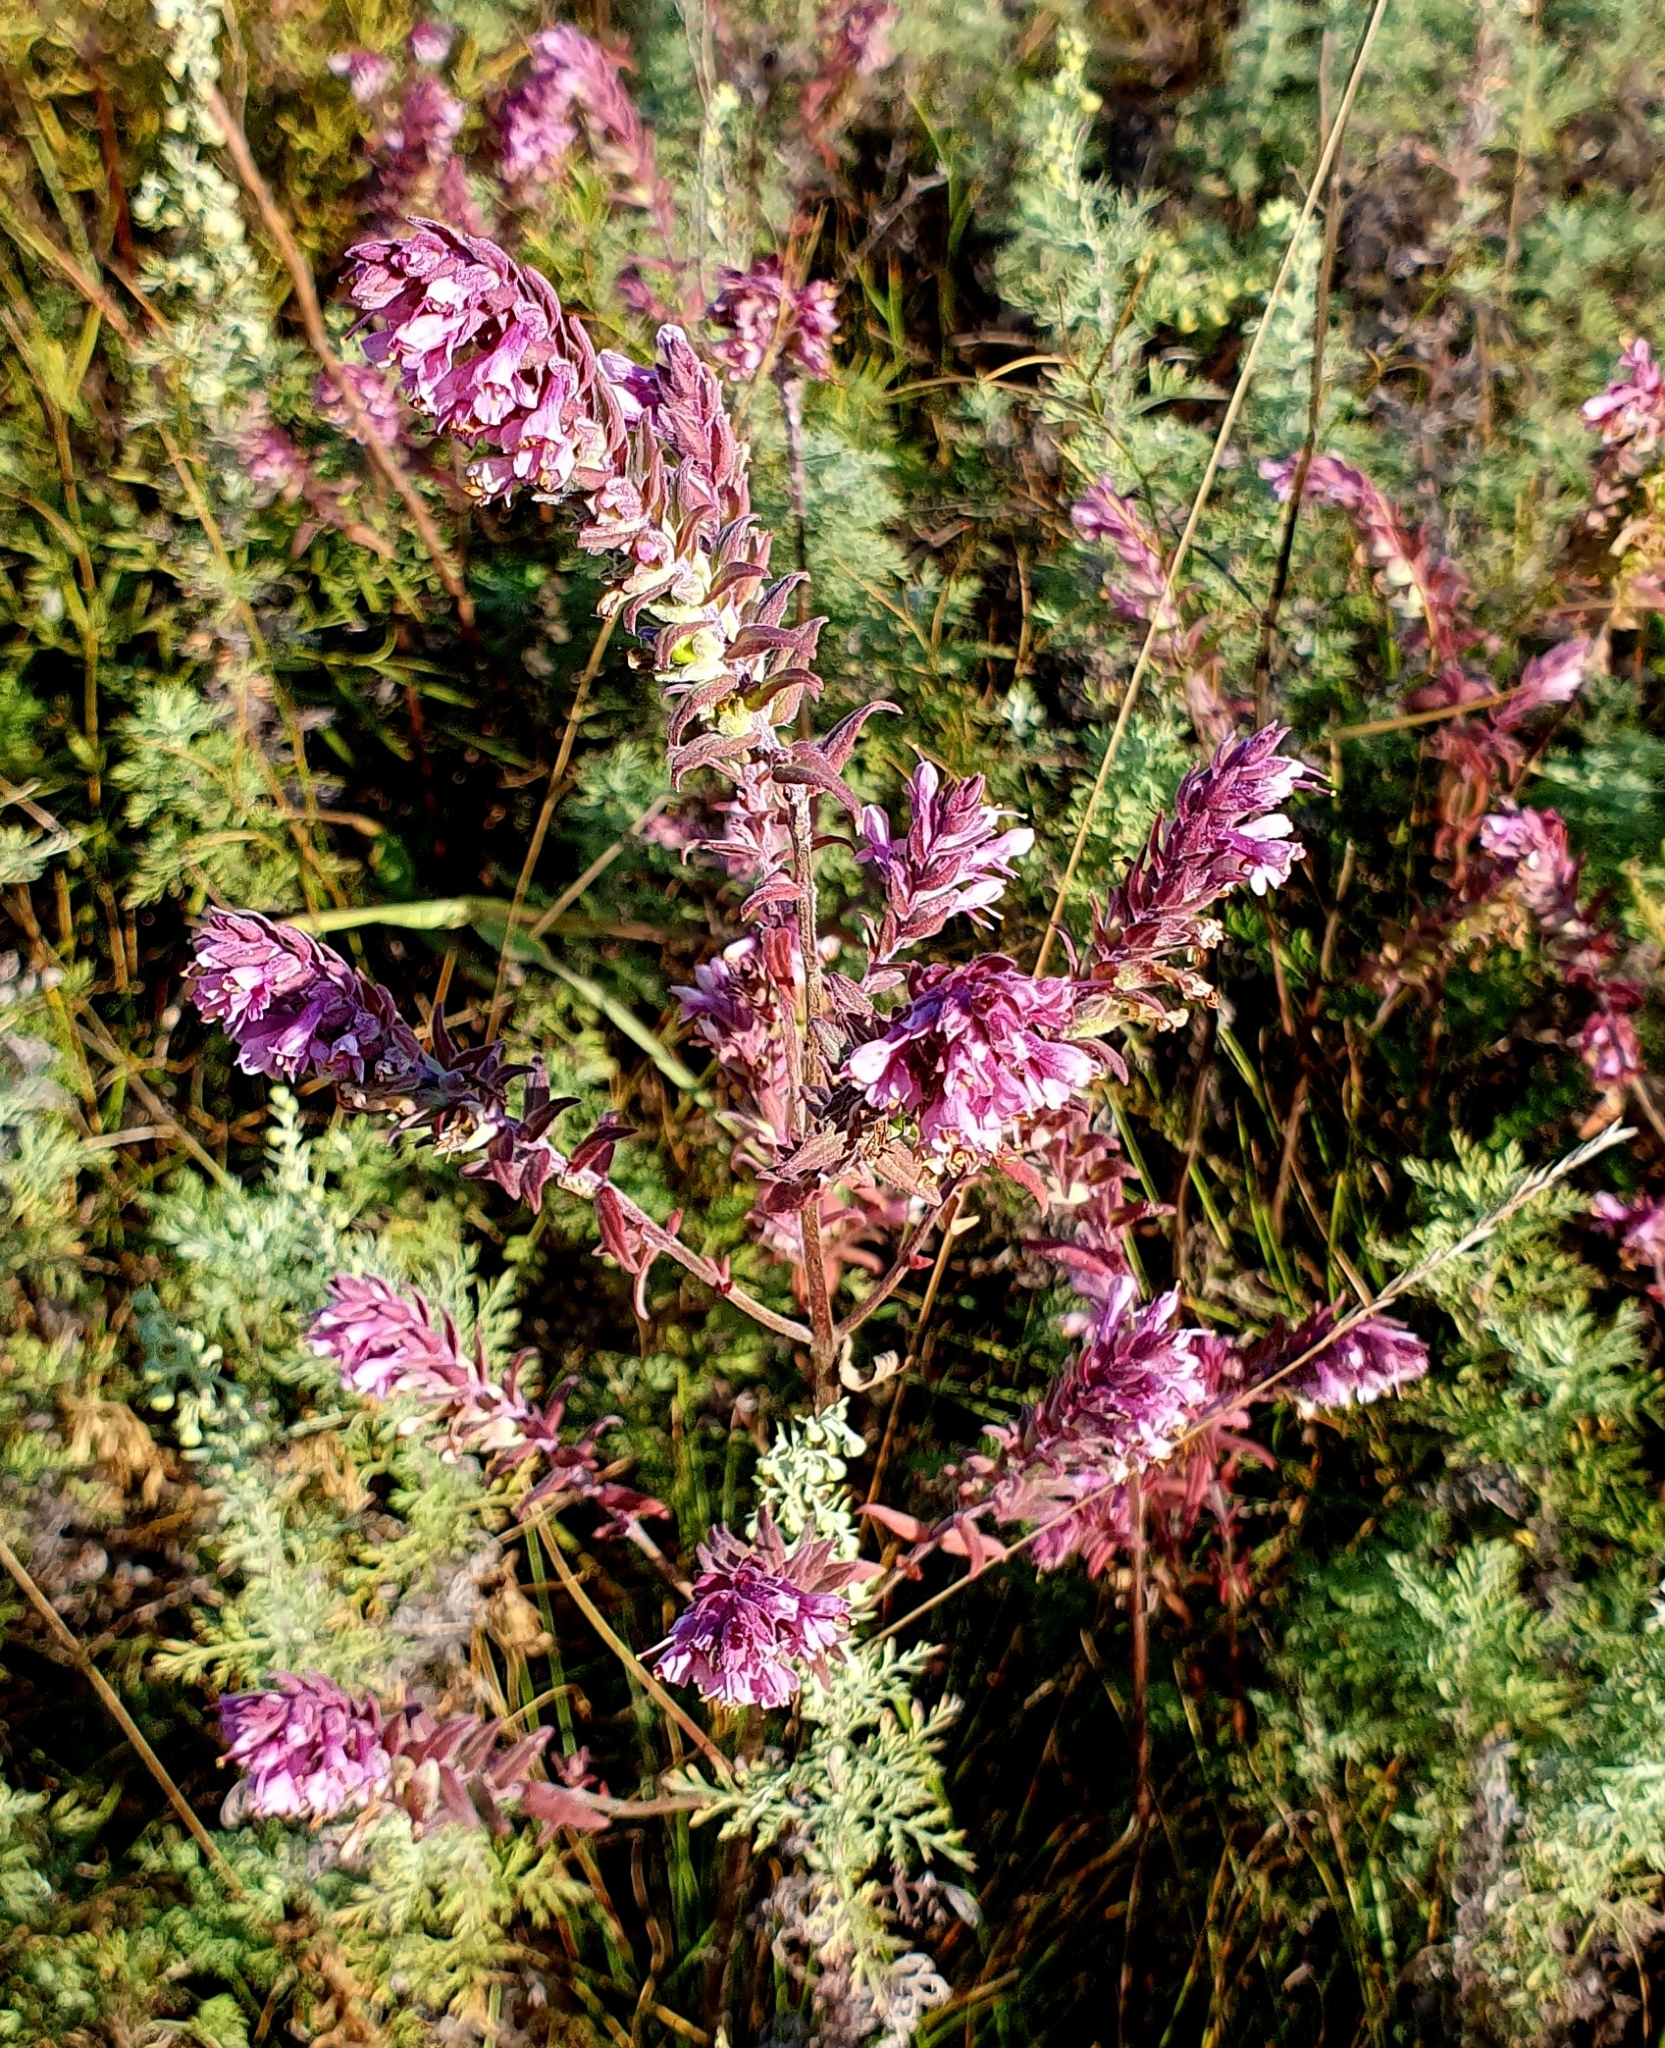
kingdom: Plantae
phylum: Tracheophyta
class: Magnoliopsida
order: Lamiales
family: Orobanchaceae
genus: Odontites
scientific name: Odontites vulgaris
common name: Broomrape
